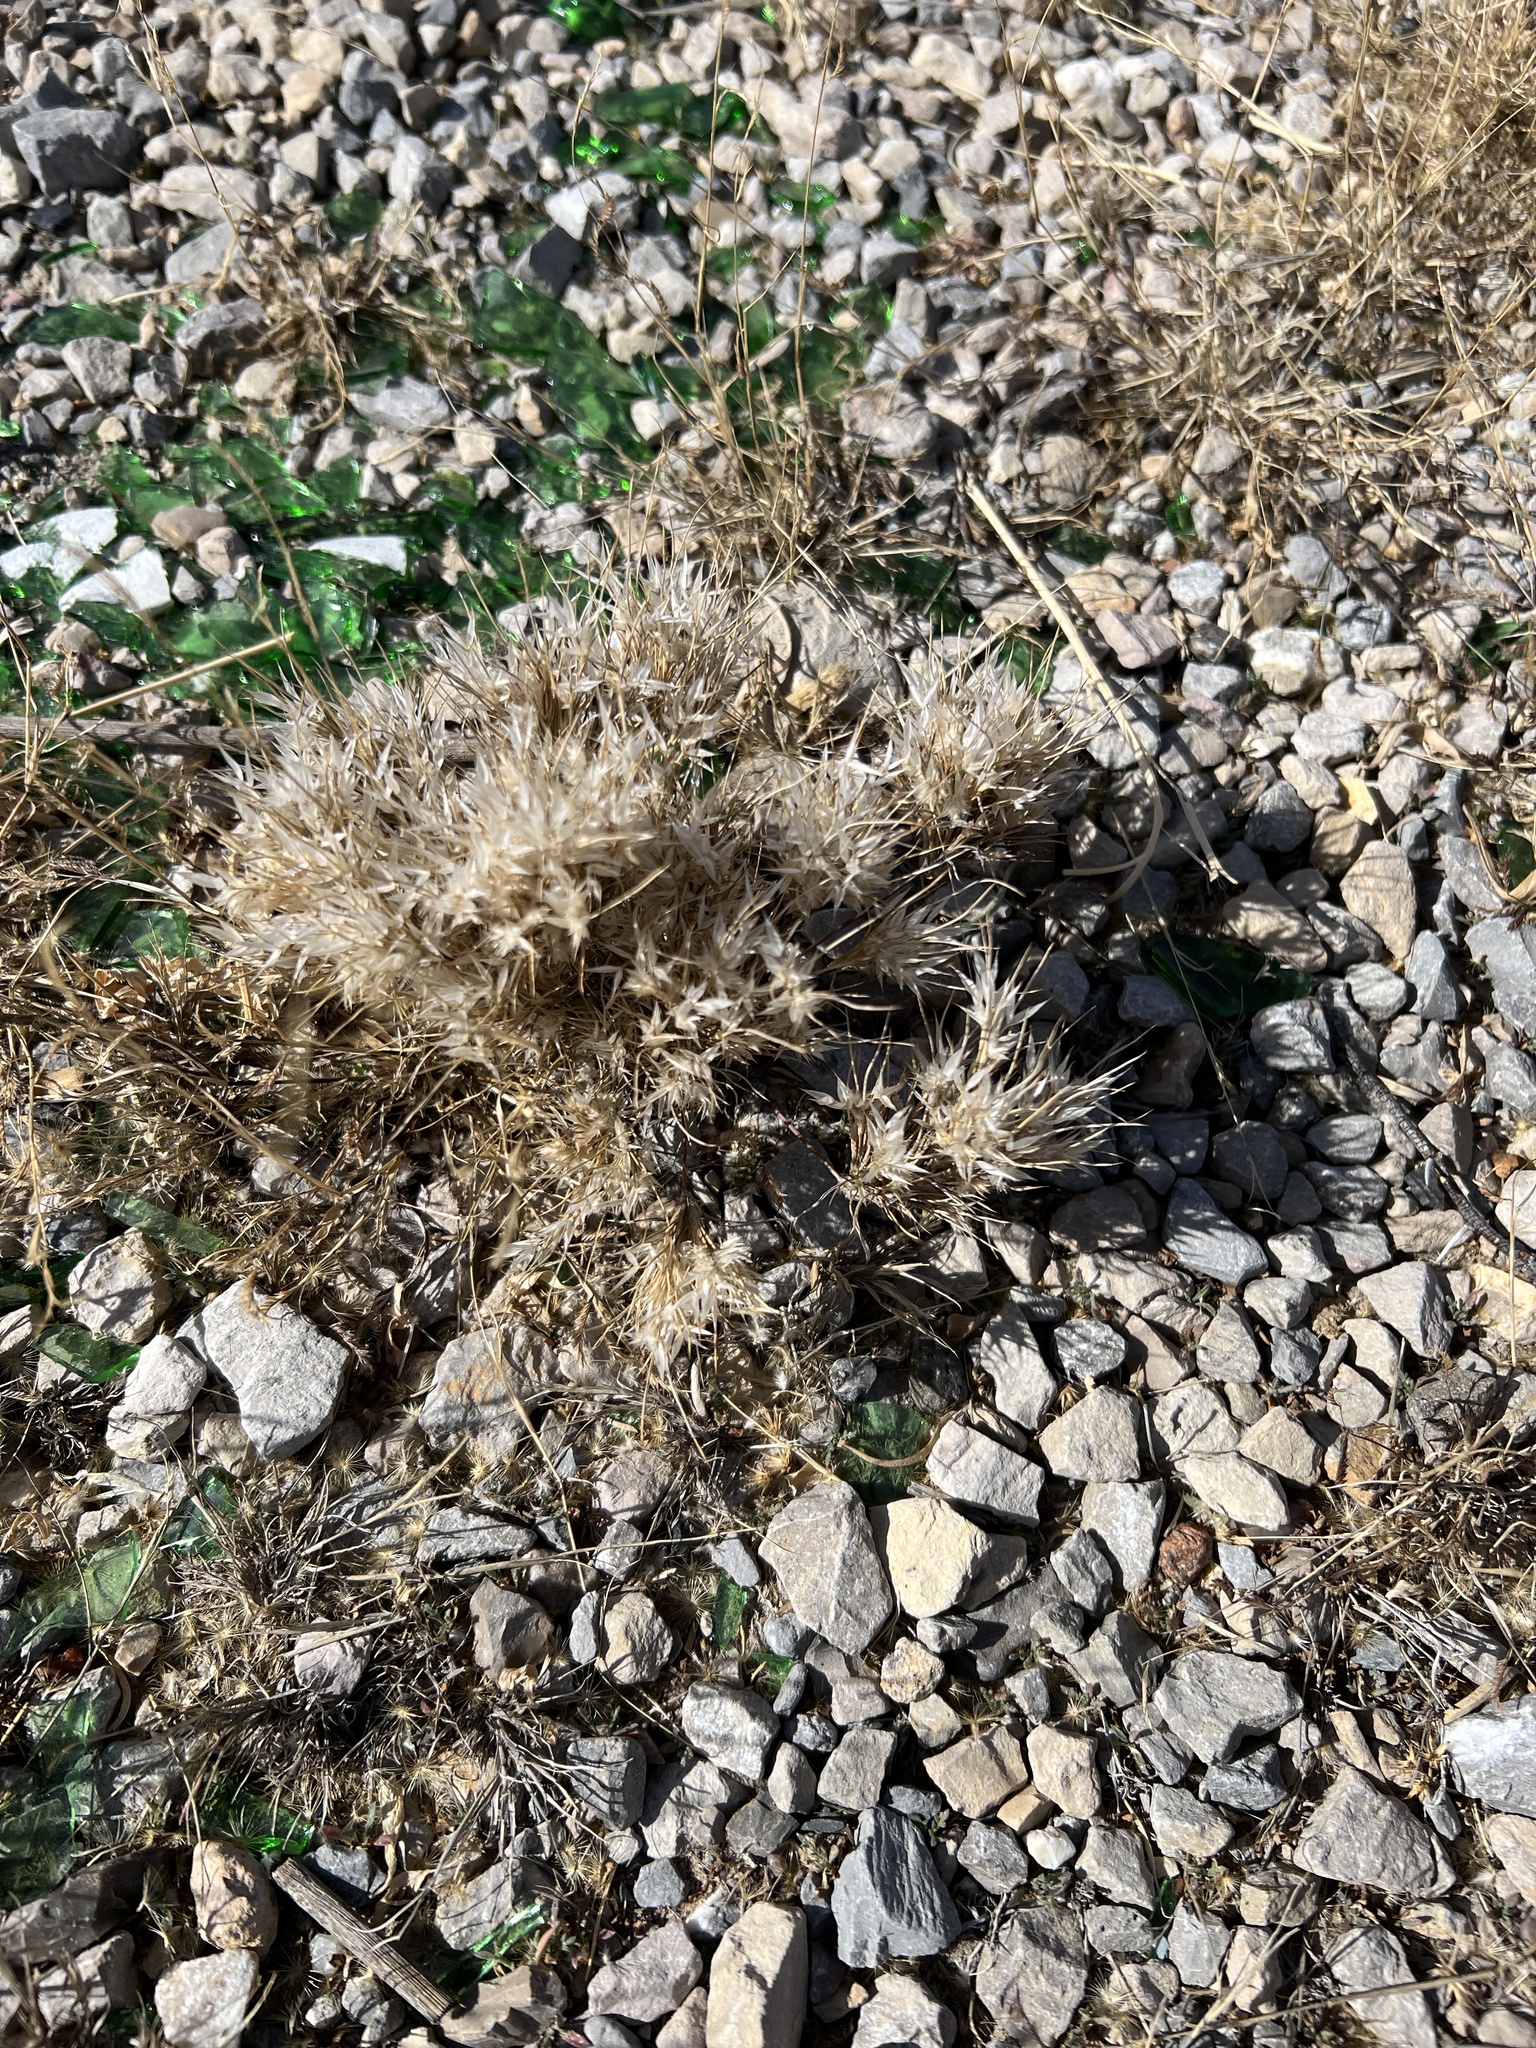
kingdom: Plantae
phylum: Tracheophyta
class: Liliopsida
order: Poales
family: Poaceae
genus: Dasyochloa
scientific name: Dasyochloa pulchella
